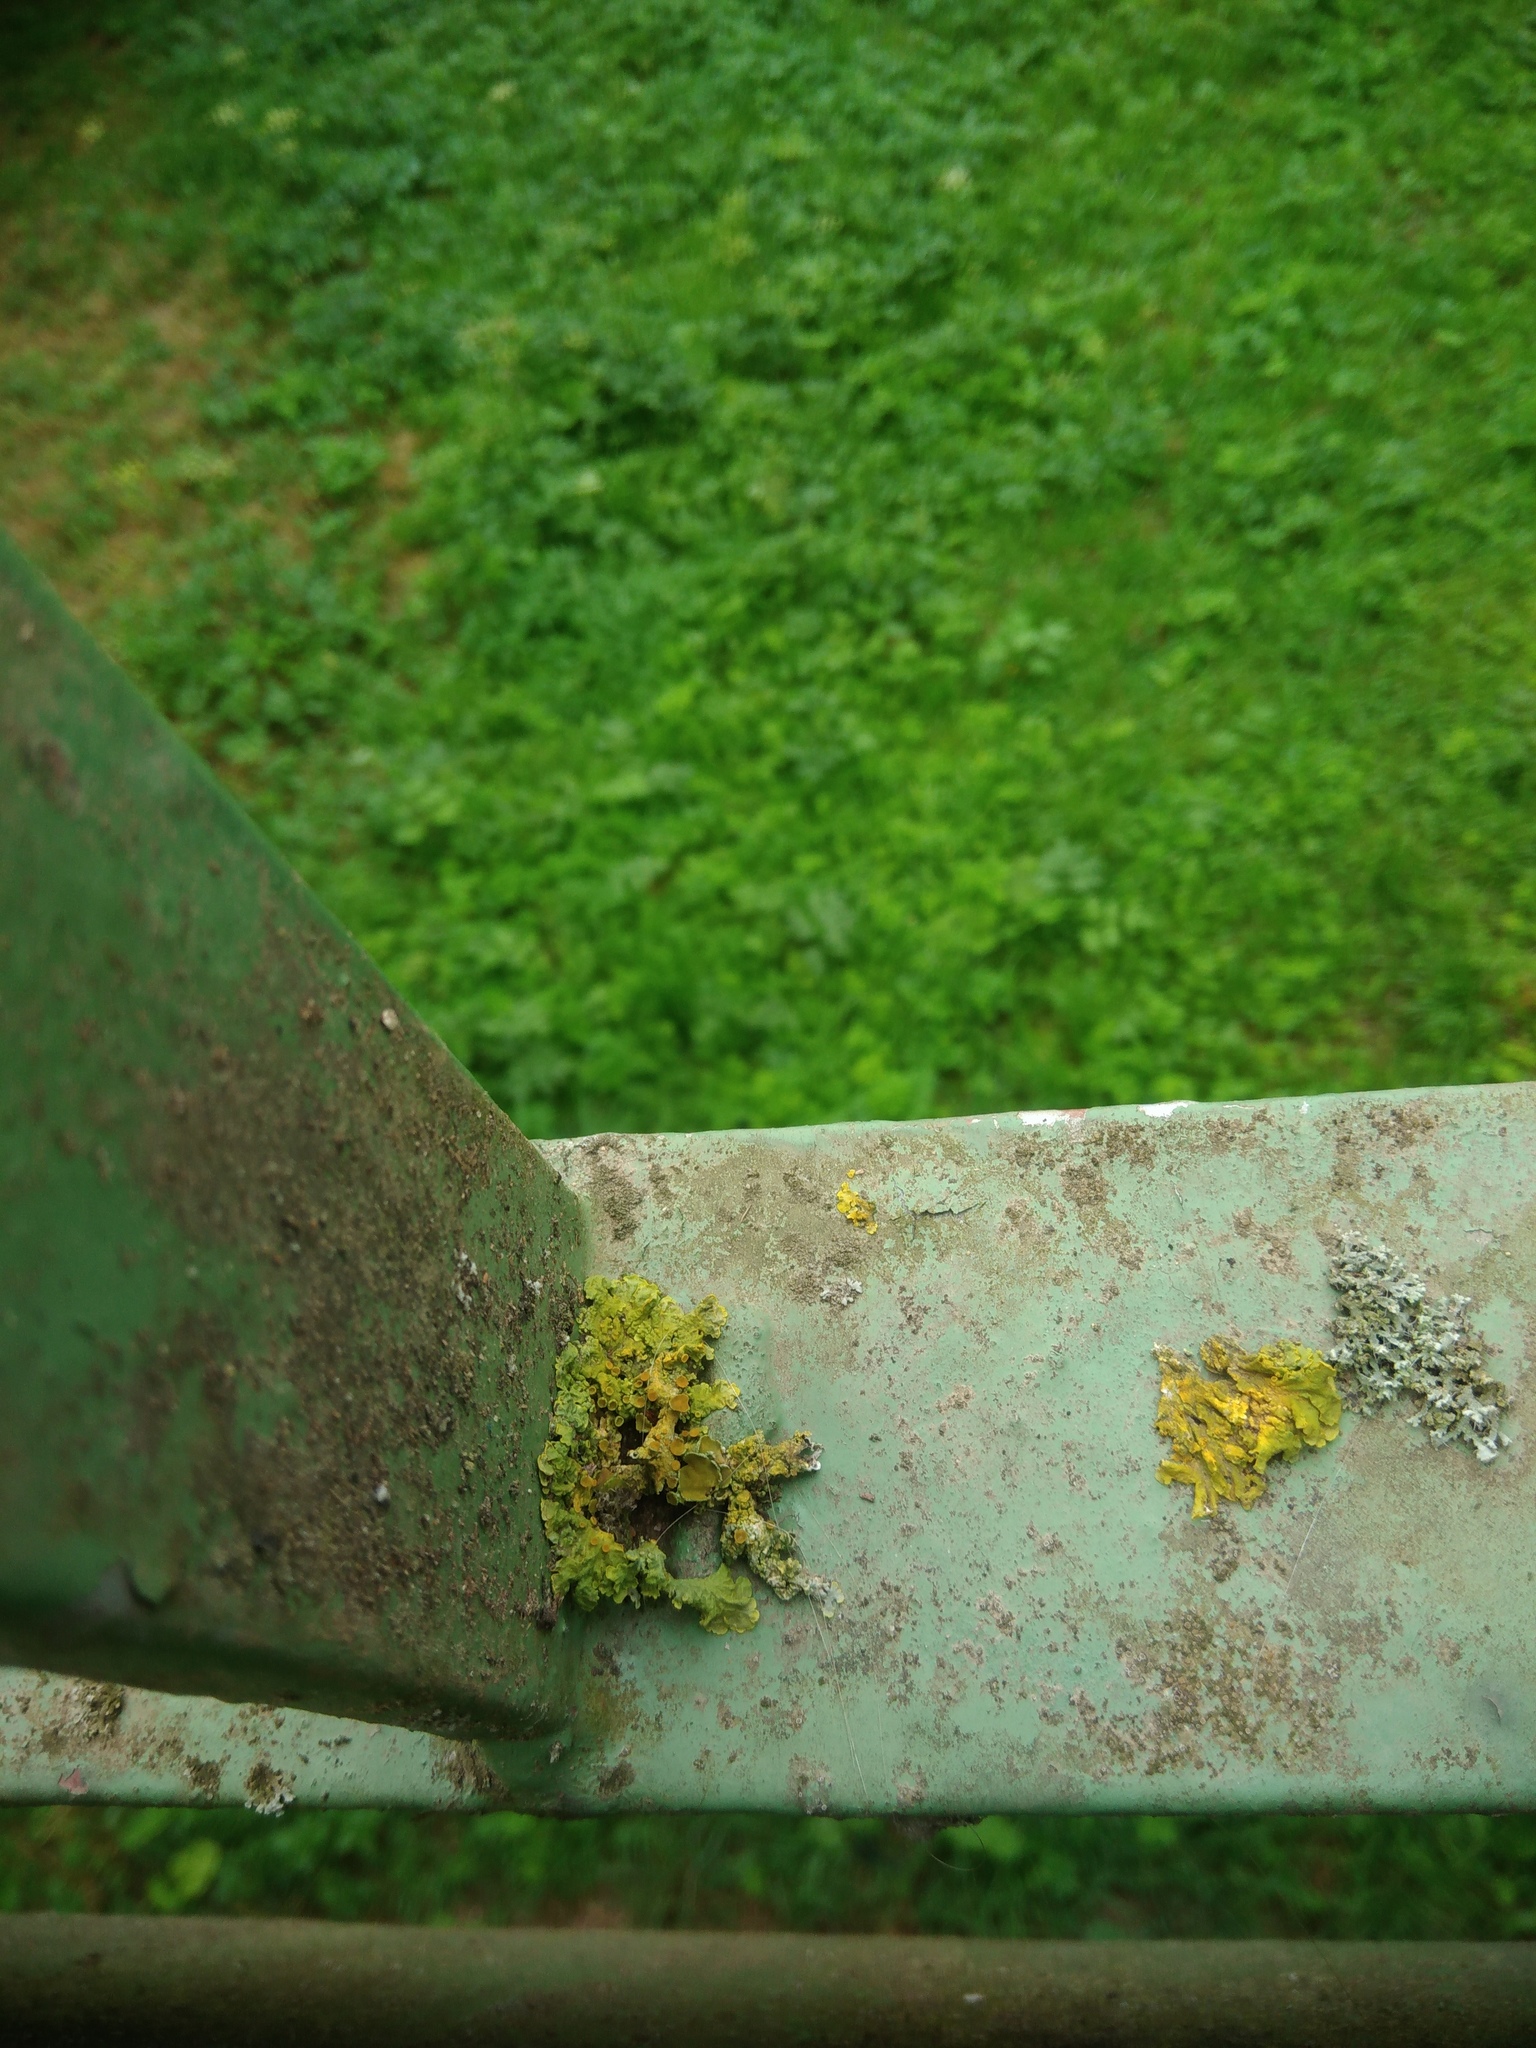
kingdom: Fungi
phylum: Ascomycota
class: Lecanoromycetes
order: Teloschistales
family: Teloschistaceae
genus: Xanthoria
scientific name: Xanthoria parietina
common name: Common orange lichen
